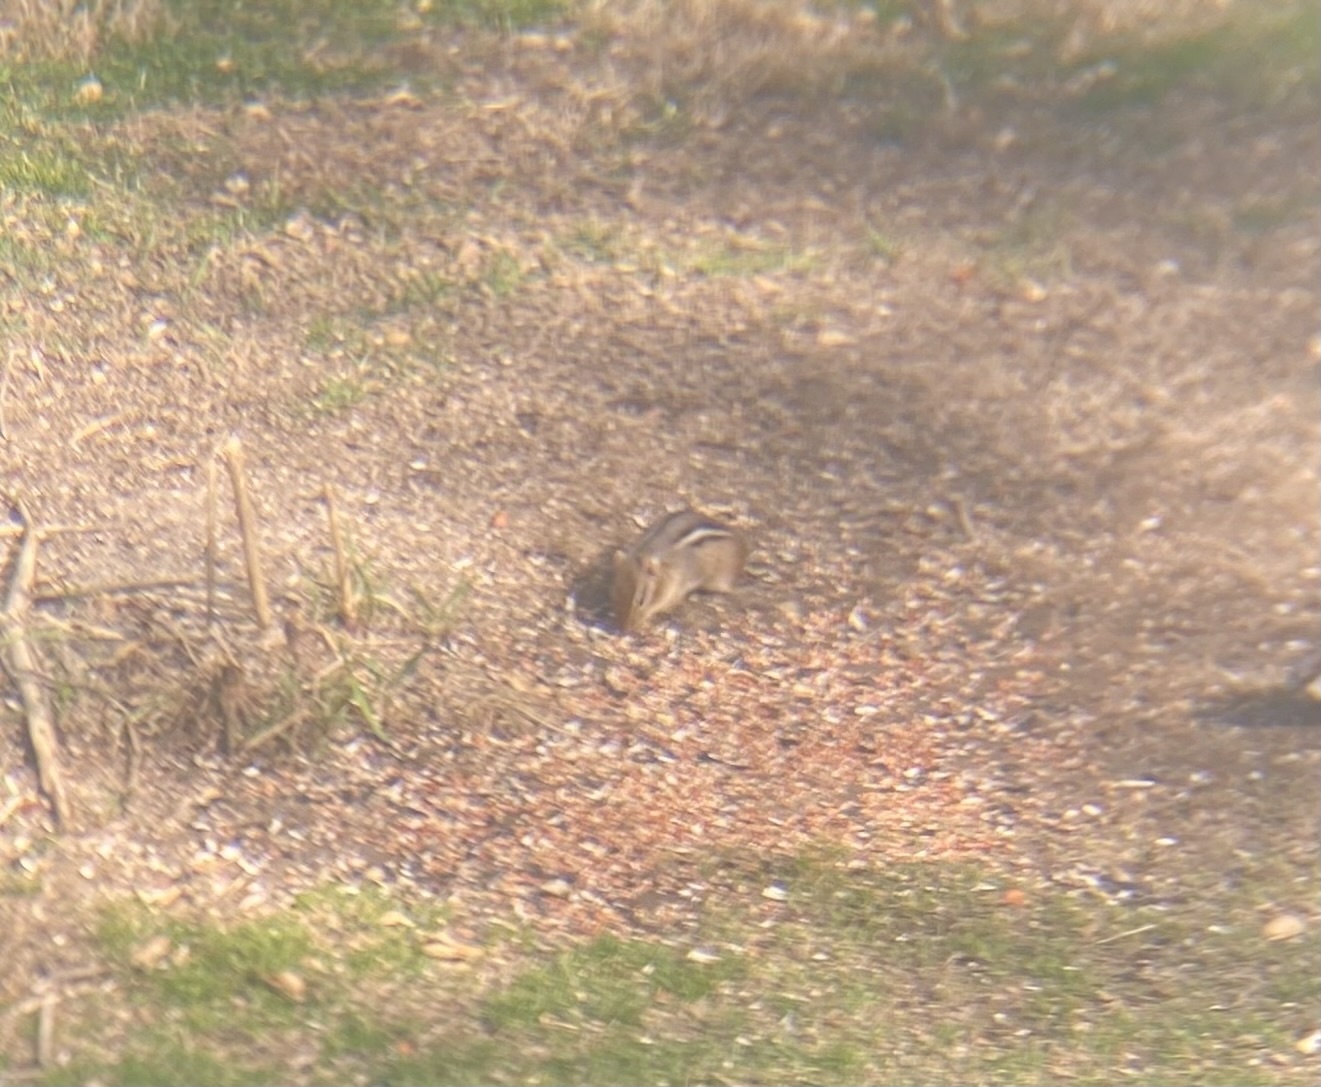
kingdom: Animalia
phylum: Chordata
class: Mammalia
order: Rodentia
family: Sciuridae
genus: Tamias
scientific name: Tamias striatus
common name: Eastern chipmunk
